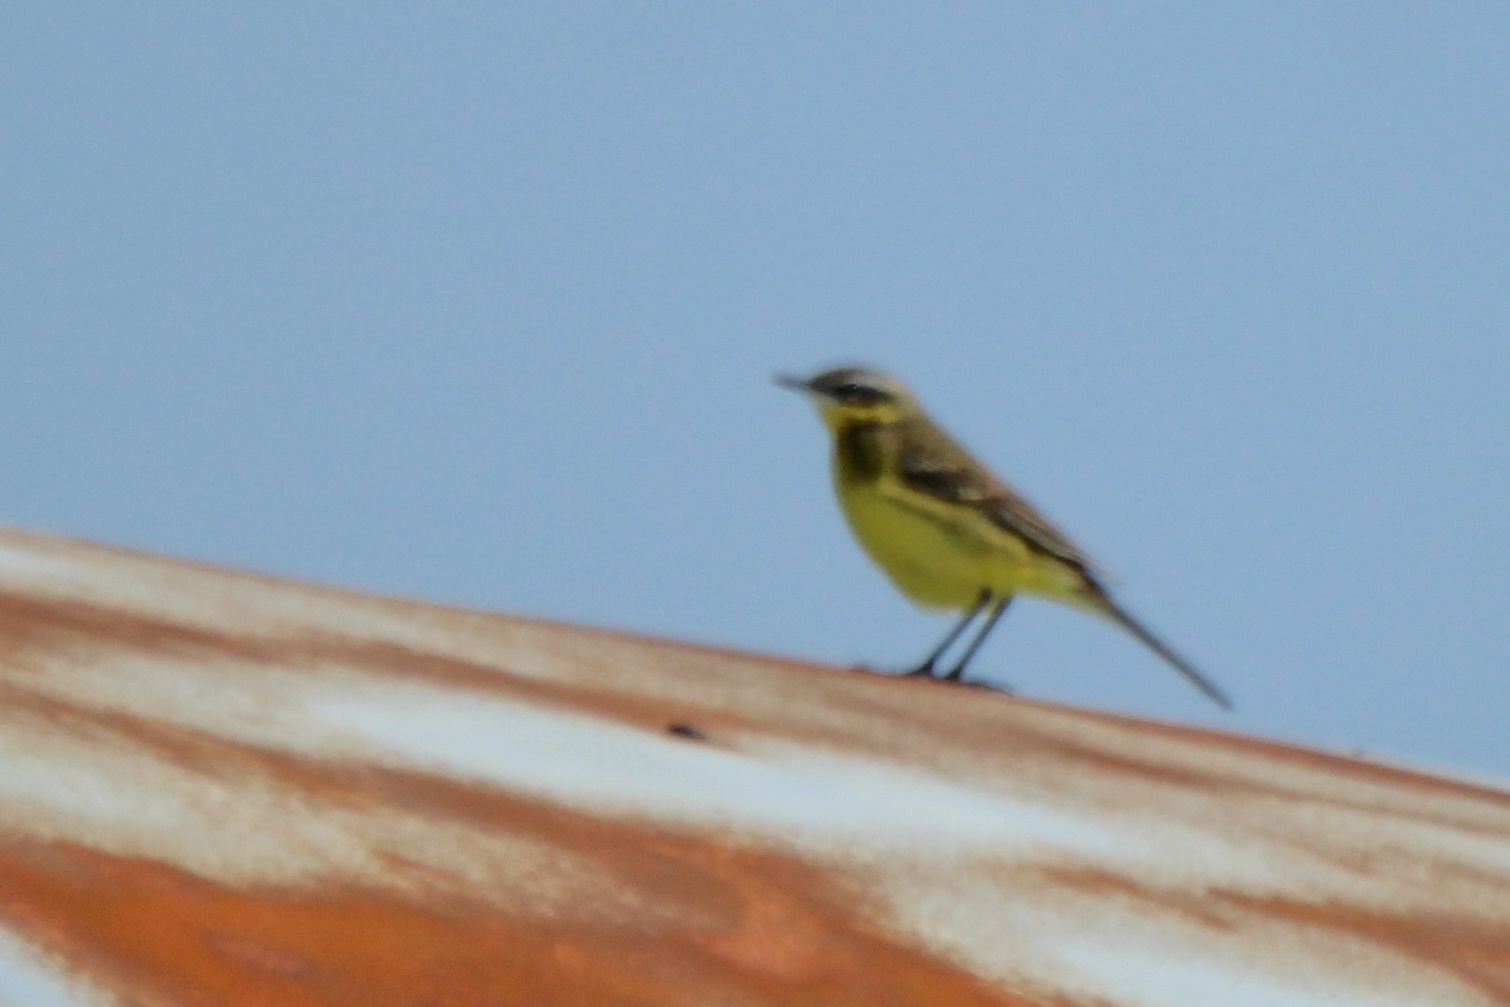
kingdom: Animalia
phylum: Chordata
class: Aves
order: Passeriformes
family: Motacillidae
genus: Motacilla
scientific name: Motacilla tschutschensis
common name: Eastern yellow wagtail
